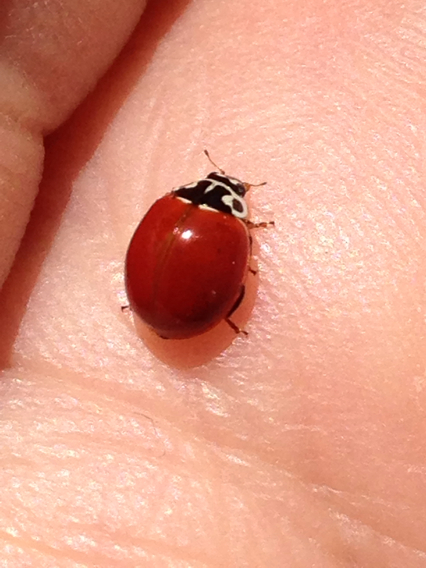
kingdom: Animalia
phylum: Arthropoda
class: Insecta
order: Coleoptera
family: Coccinellidae
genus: Cycloneda
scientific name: Cycloneda polita
